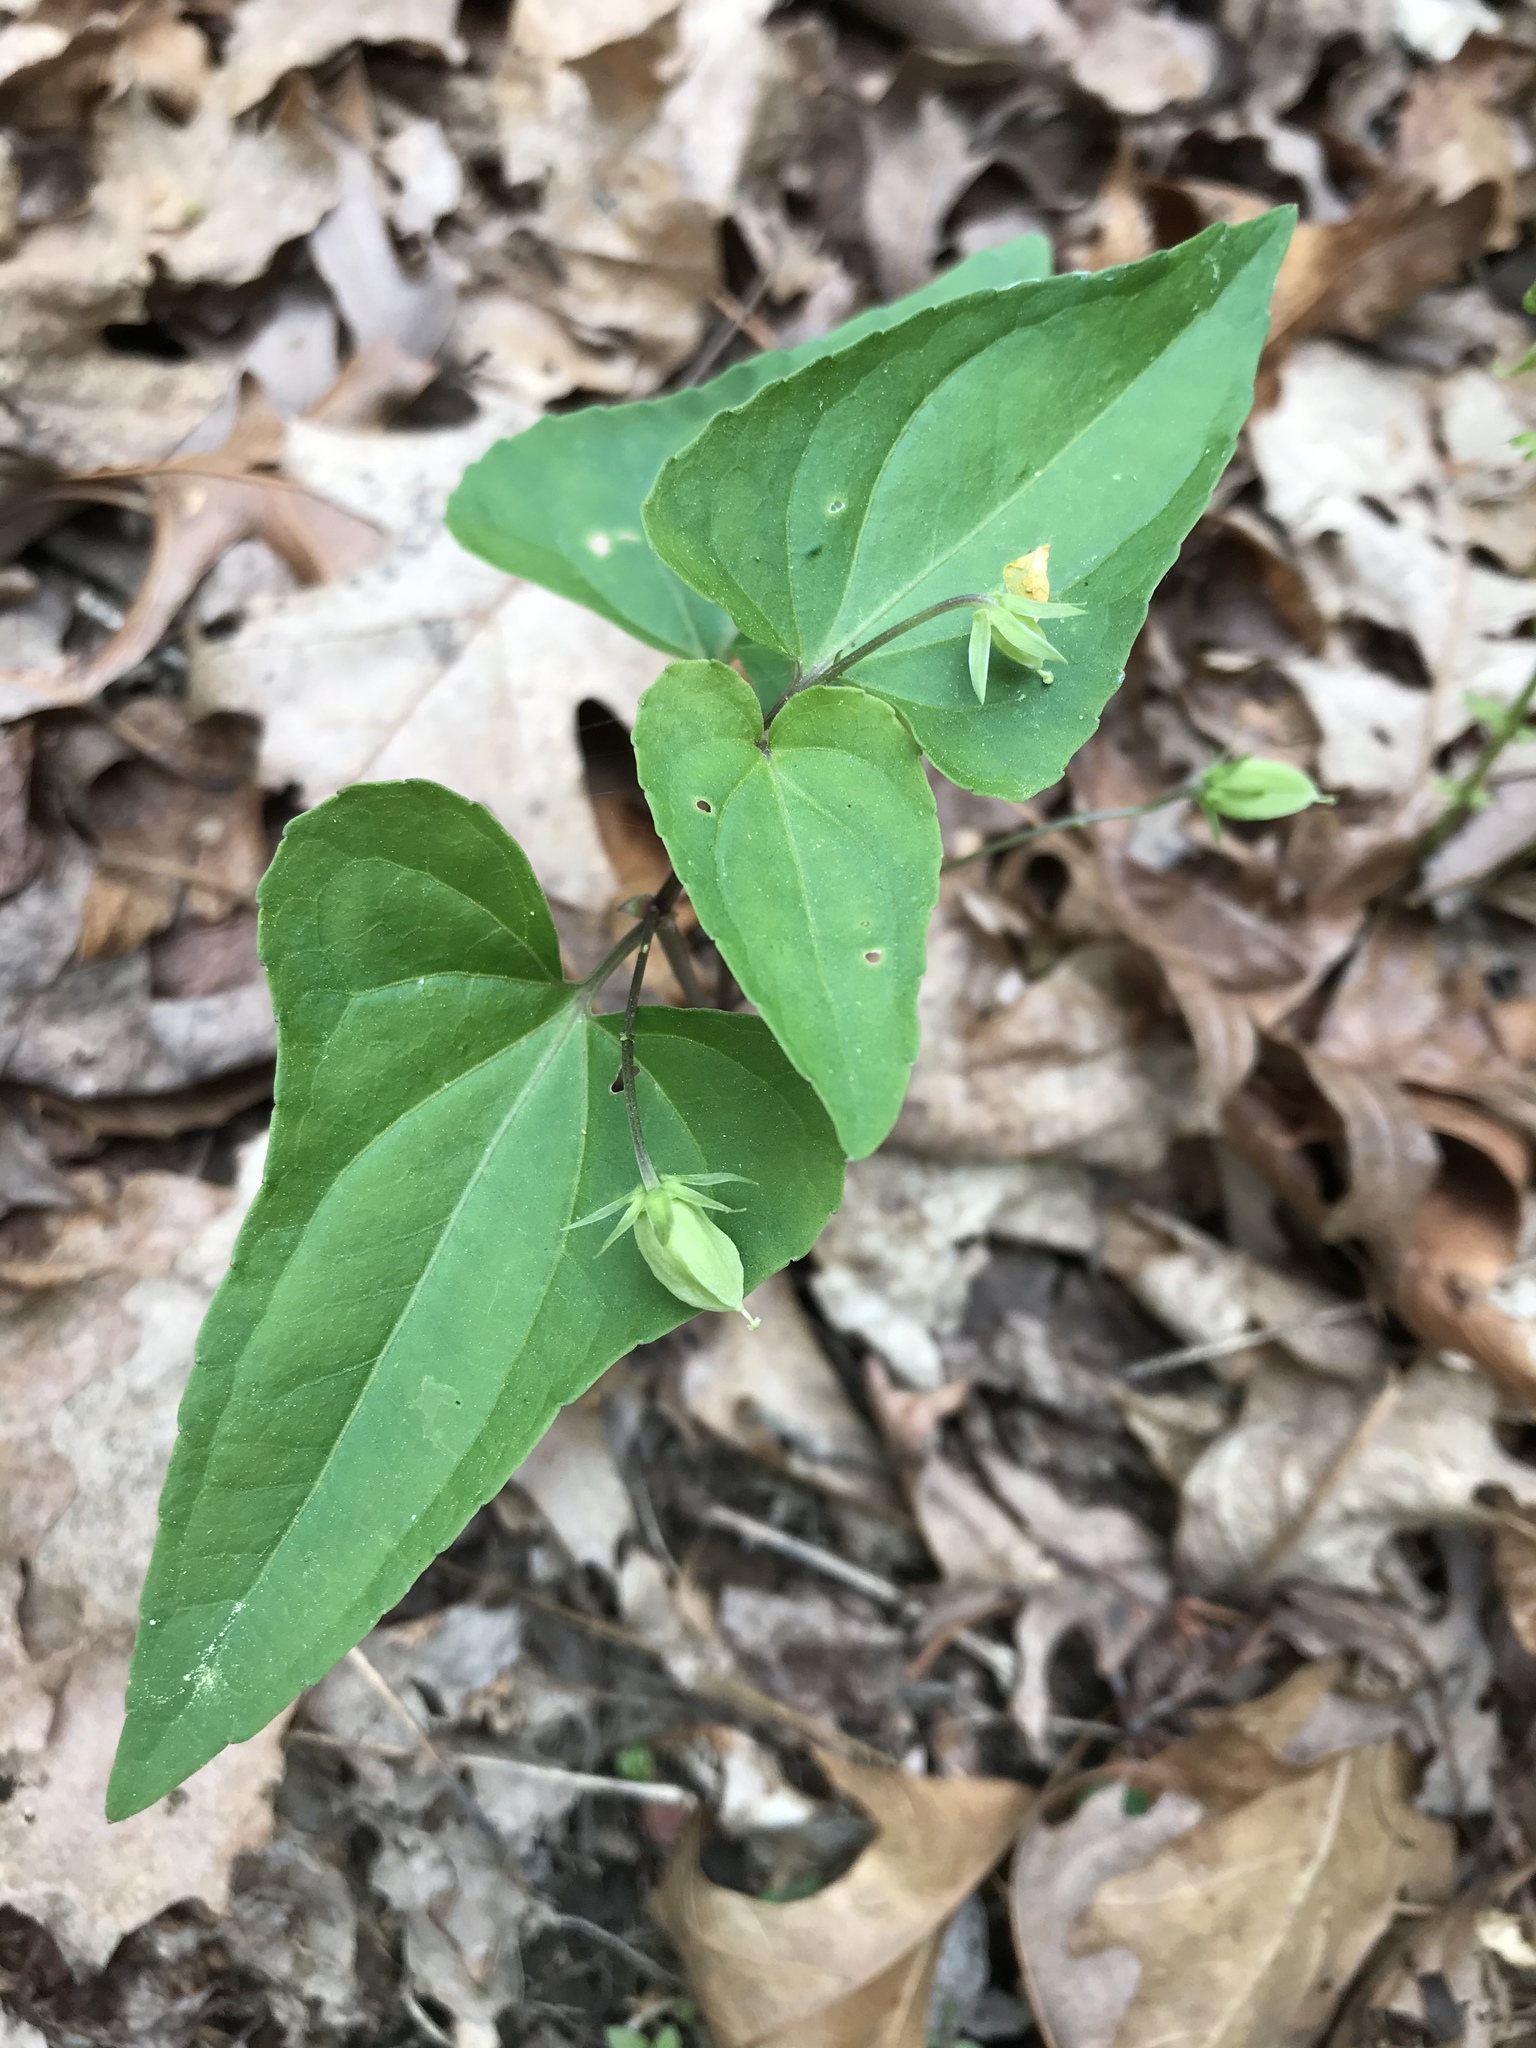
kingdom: Plantae
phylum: Tracheophyta
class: Magnoliopsida
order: Malpighiales
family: Violaceae
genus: Viola
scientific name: Viola hastata
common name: Spear-leaf violet
